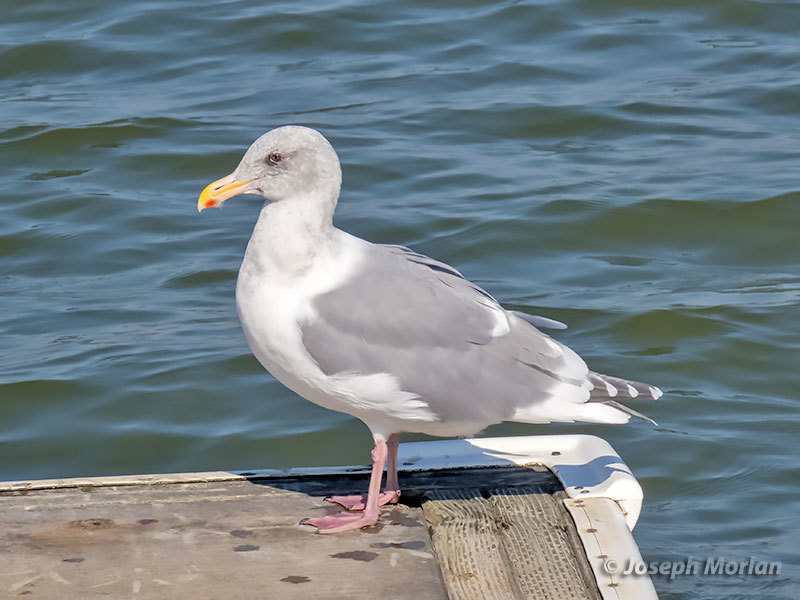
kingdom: Animalia
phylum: Chordata
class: Aves
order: Charadriiformes
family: Laridae
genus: Larus
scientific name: Larus glaucescens
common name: Glaucous-winged gull
